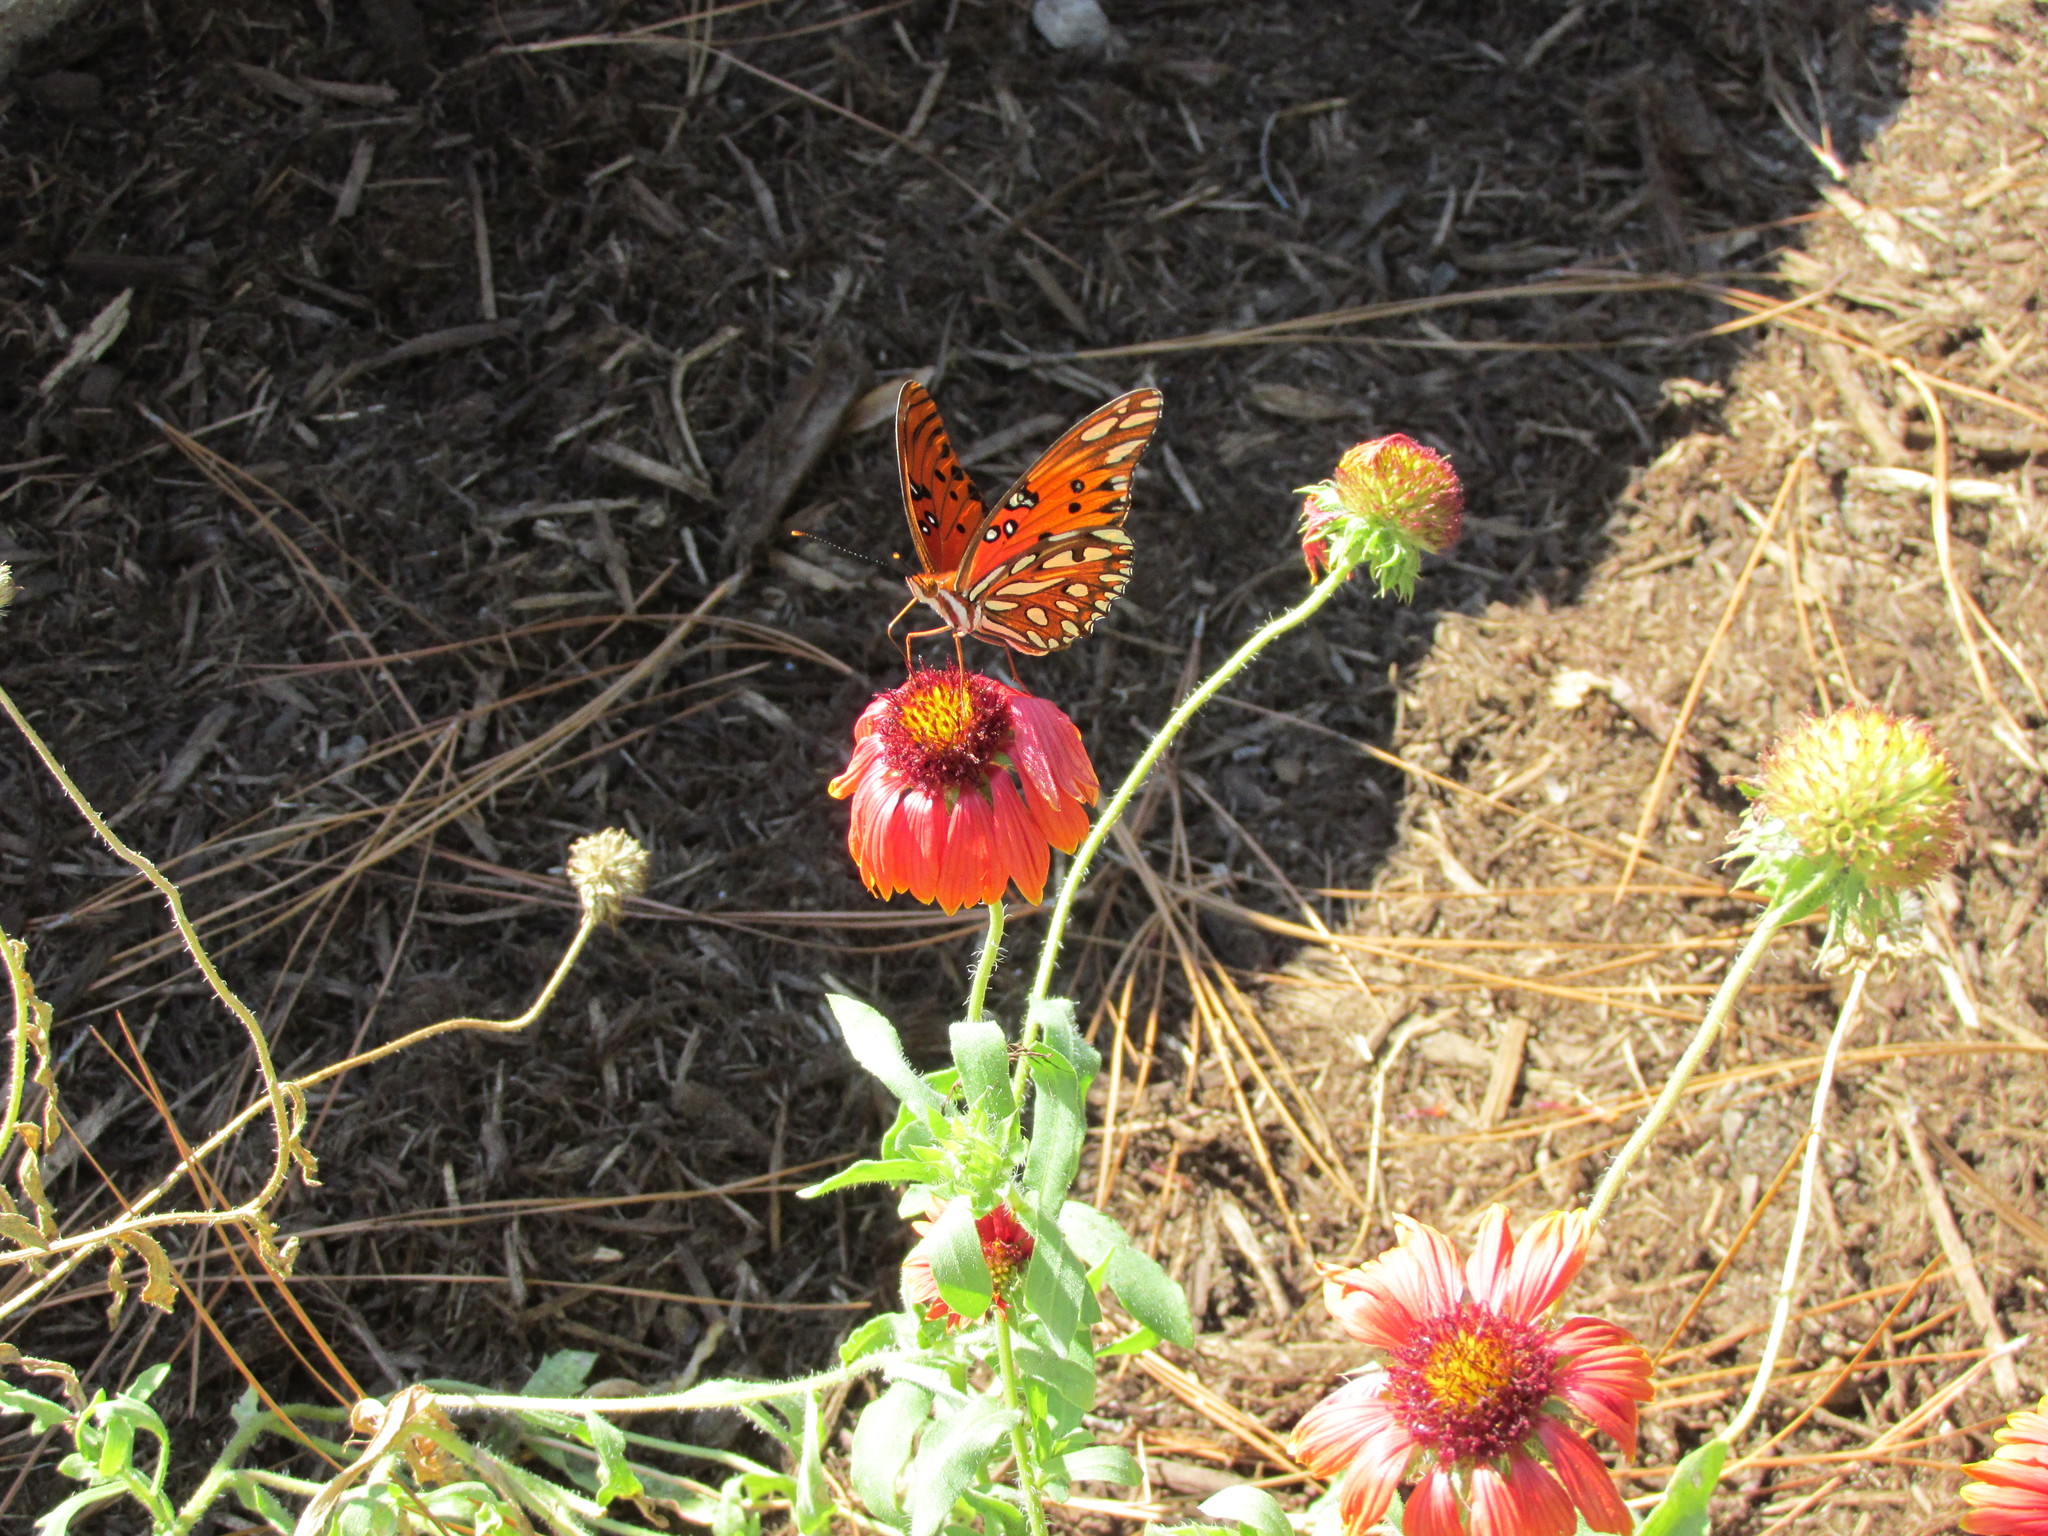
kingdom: Animalia
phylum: Arthropoda
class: Insecta
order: Lepidoptera
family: Nymphalidae
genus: Dione
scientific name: Dione vanillae
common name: Gulf fritillary
